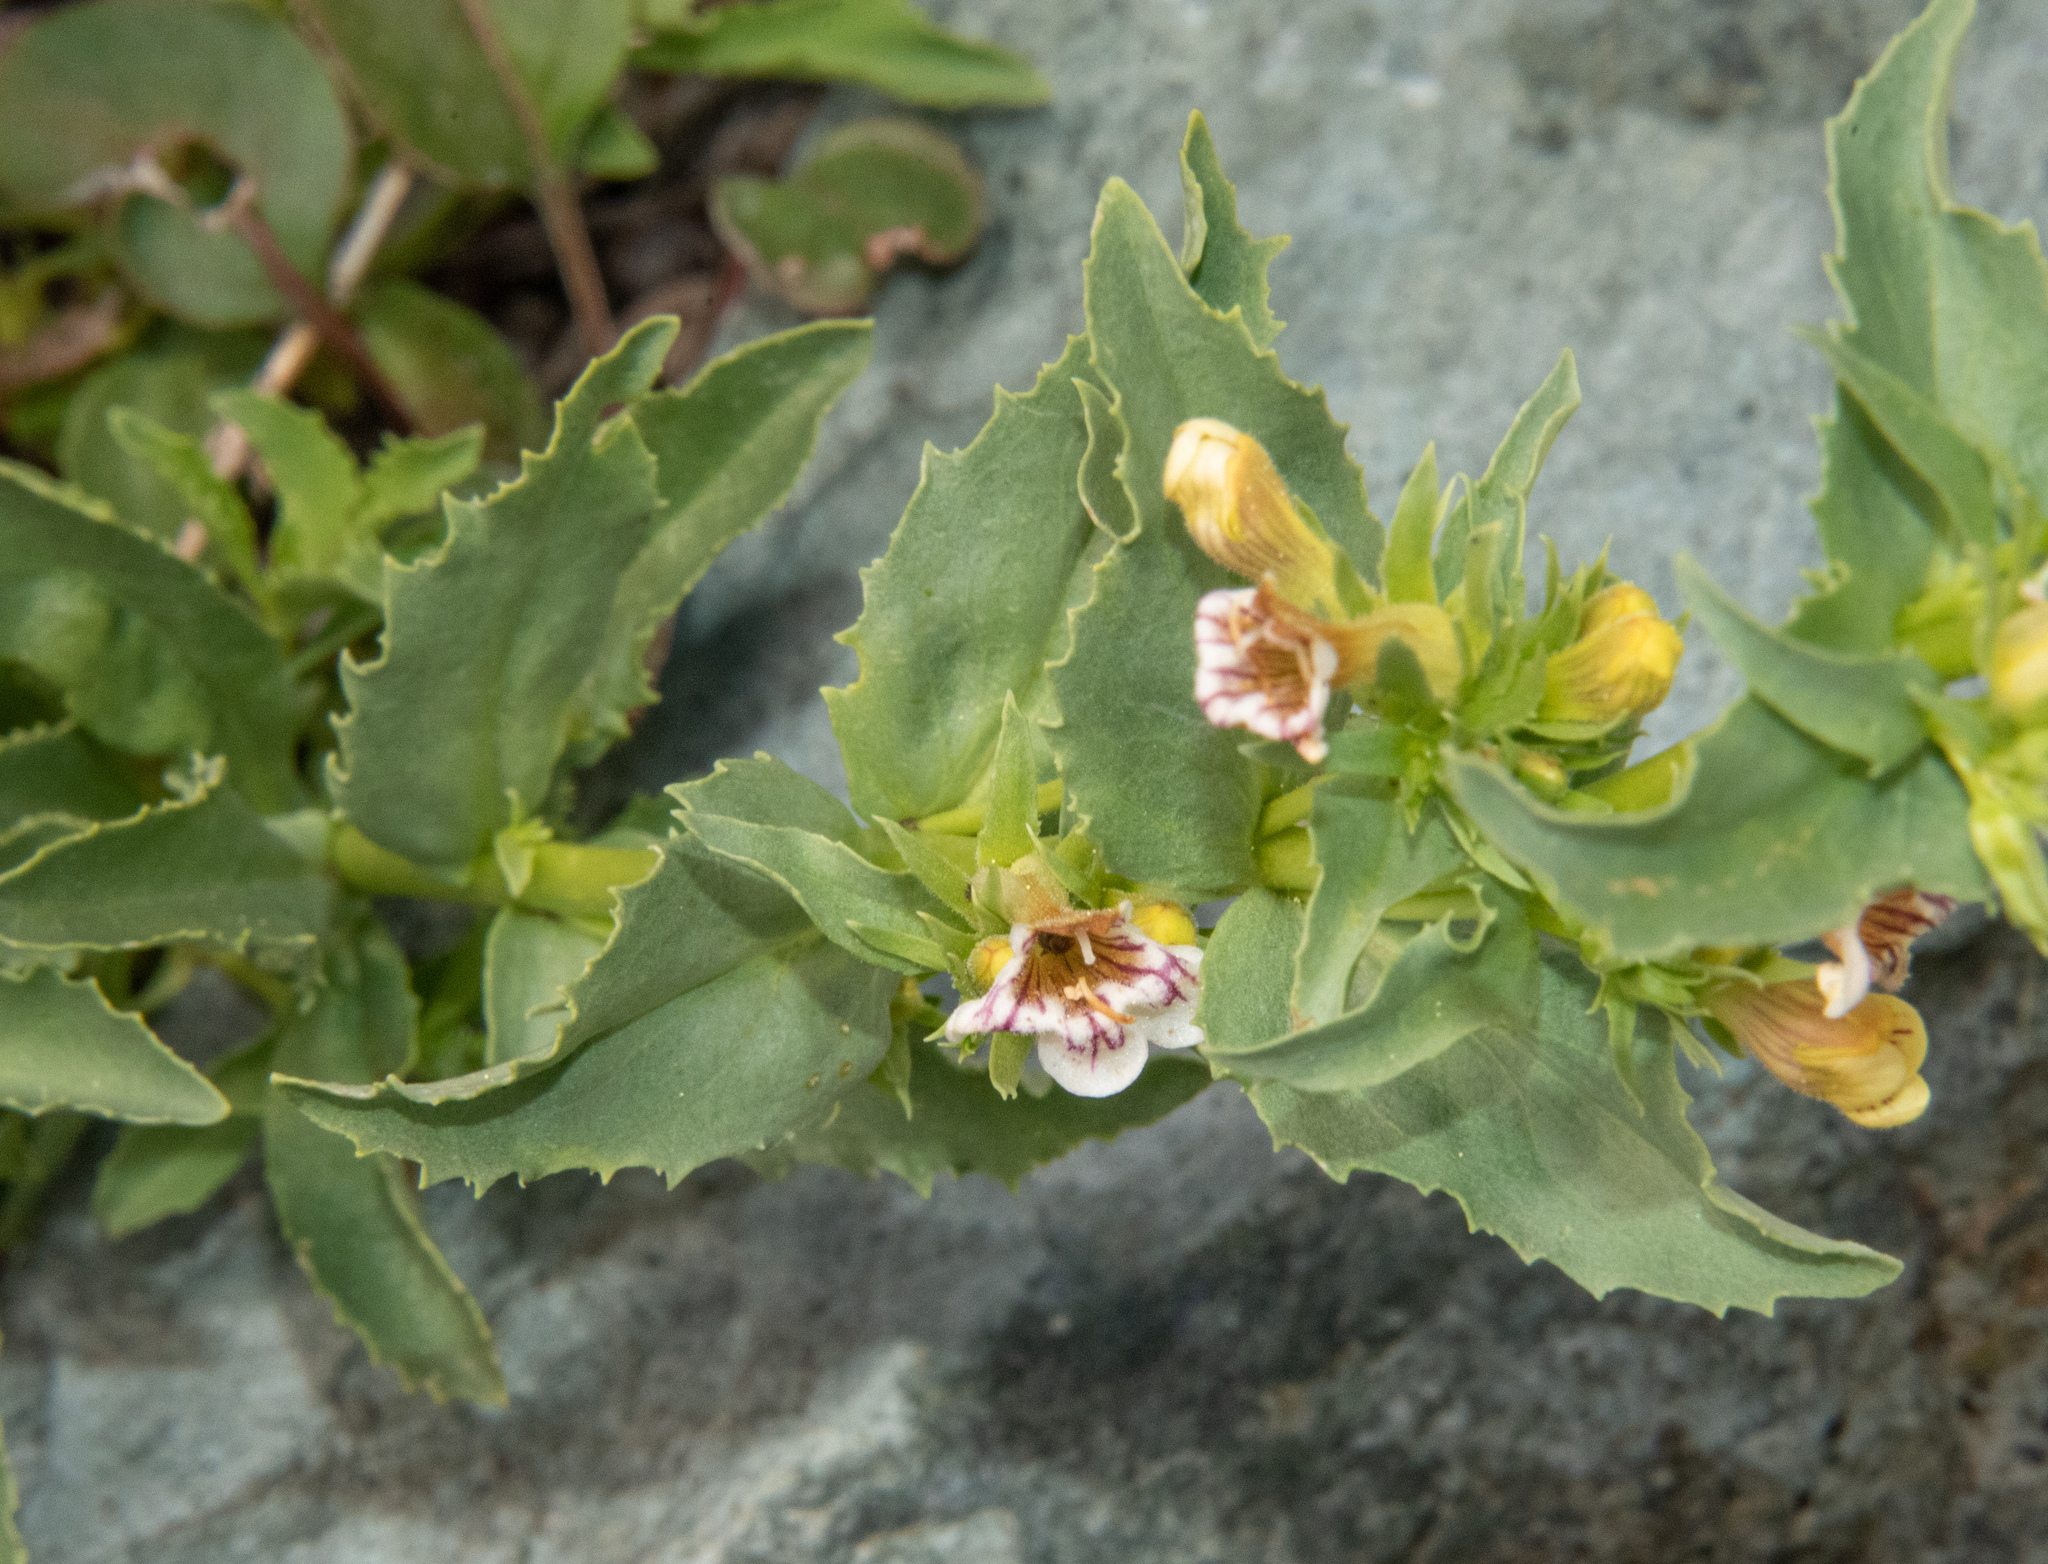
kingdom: Plantae
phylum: Tracheophyta
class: Magnoliopsida
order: Lamiales
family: Plantaginaceae
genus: Penstemon
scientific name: Penstemon deustus
